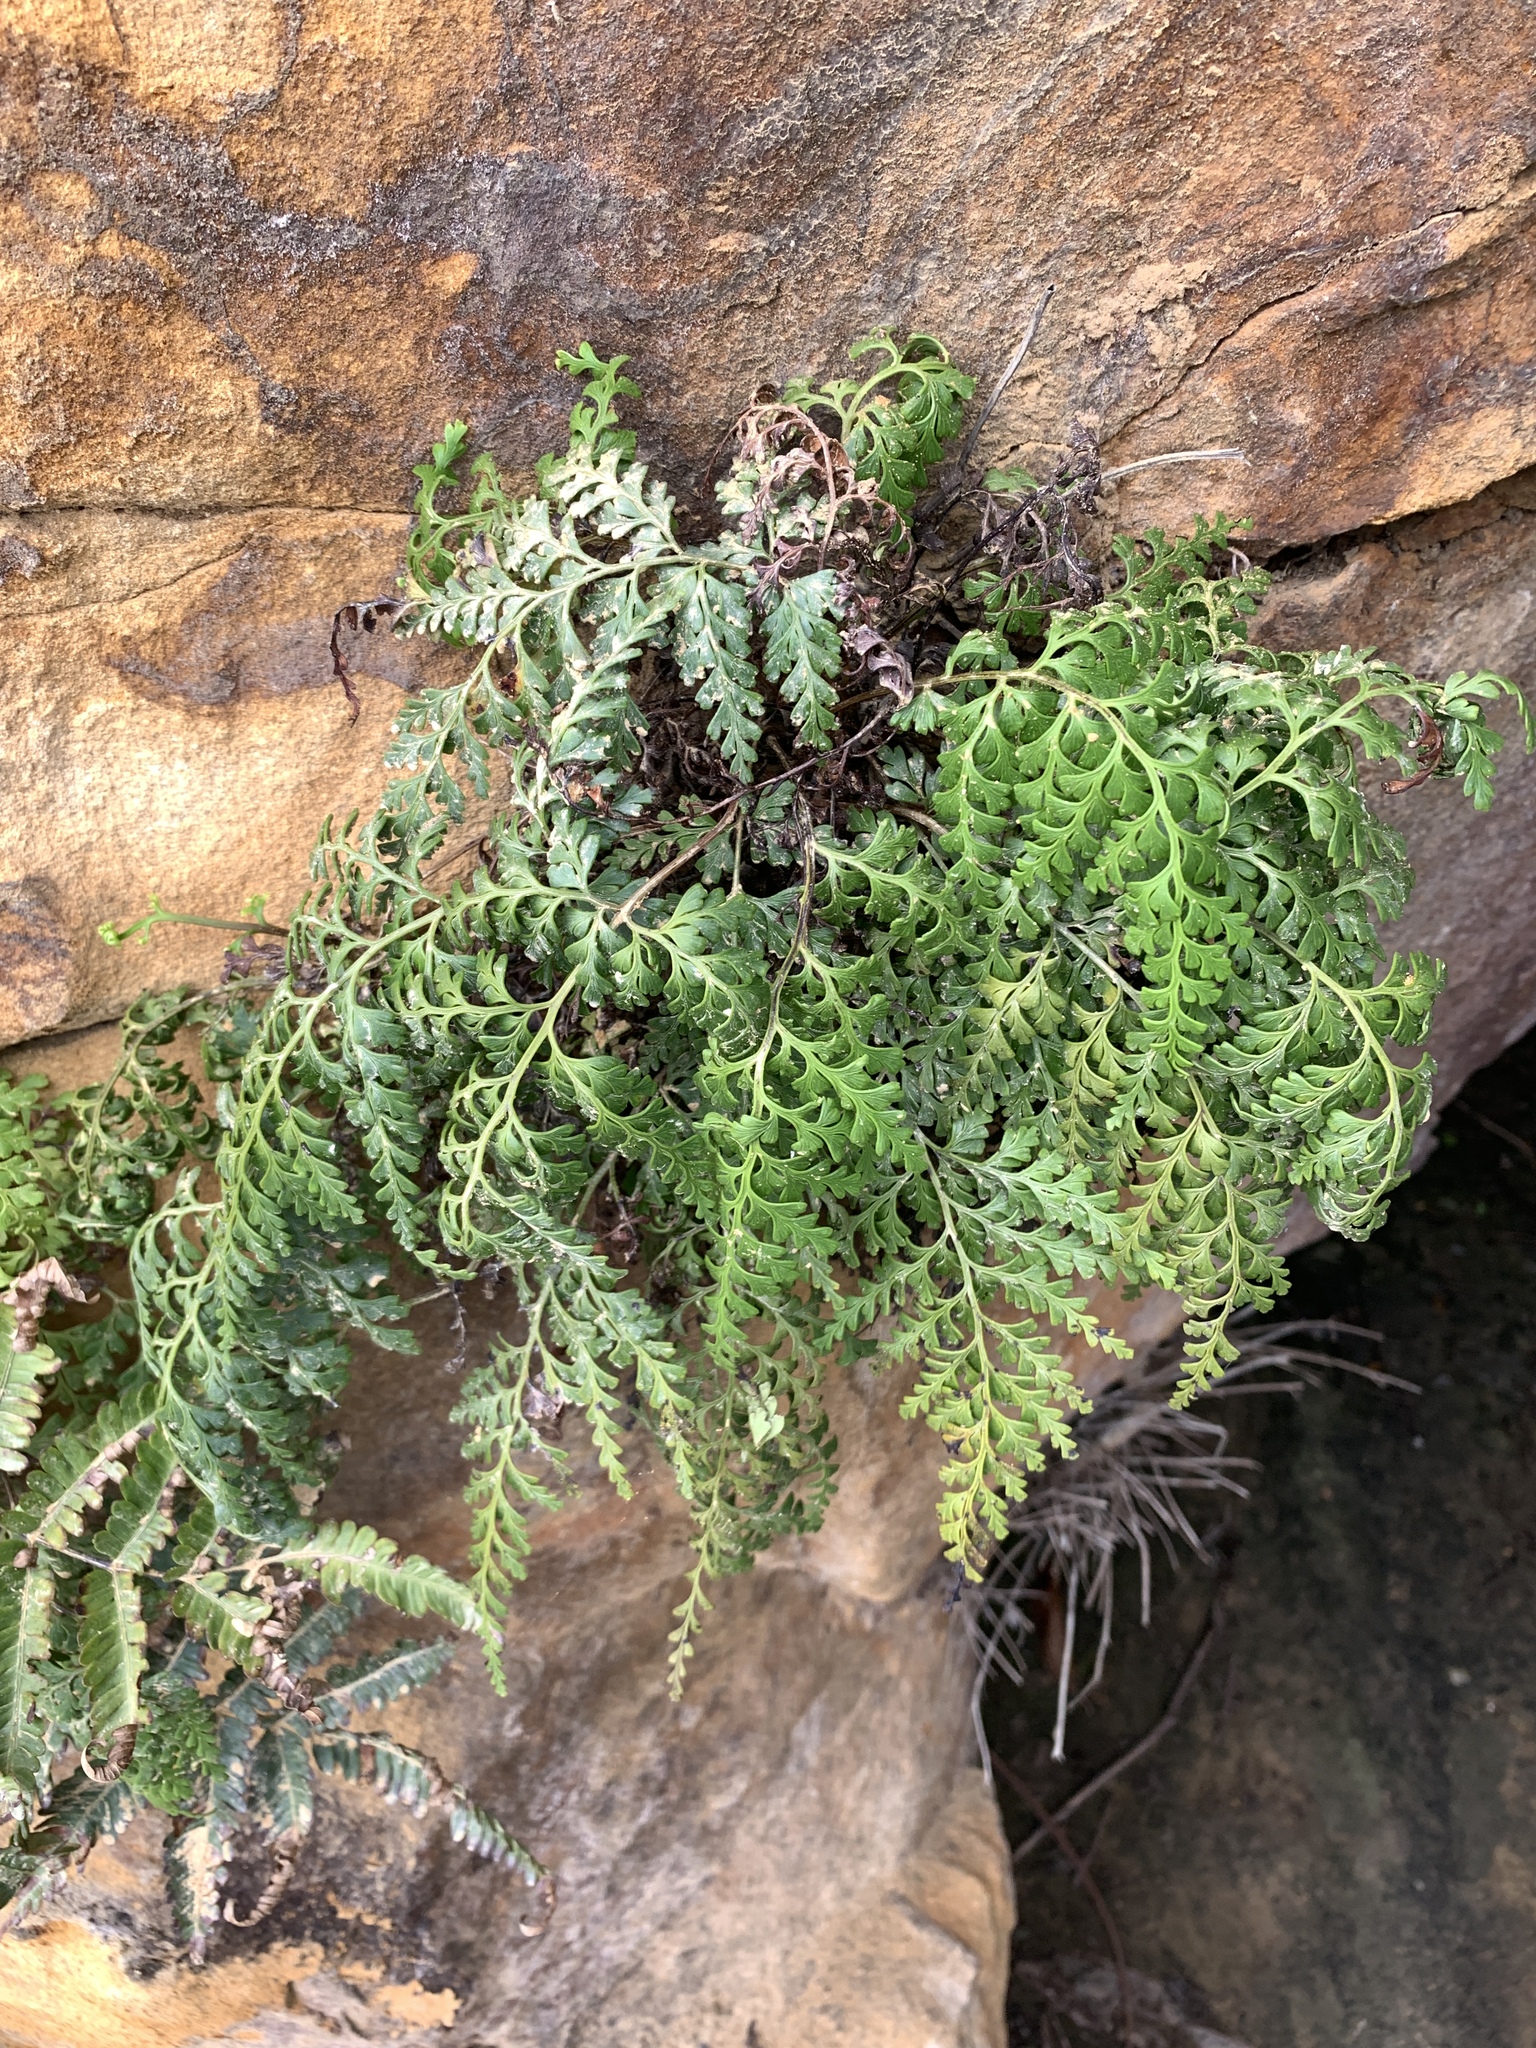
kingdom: Plantae
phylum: Tracheophyta
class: Polypodiopsida
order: Polypodiales
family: Lindsaeaceae
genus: Odontosoria
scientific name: Odontosoria biflora
